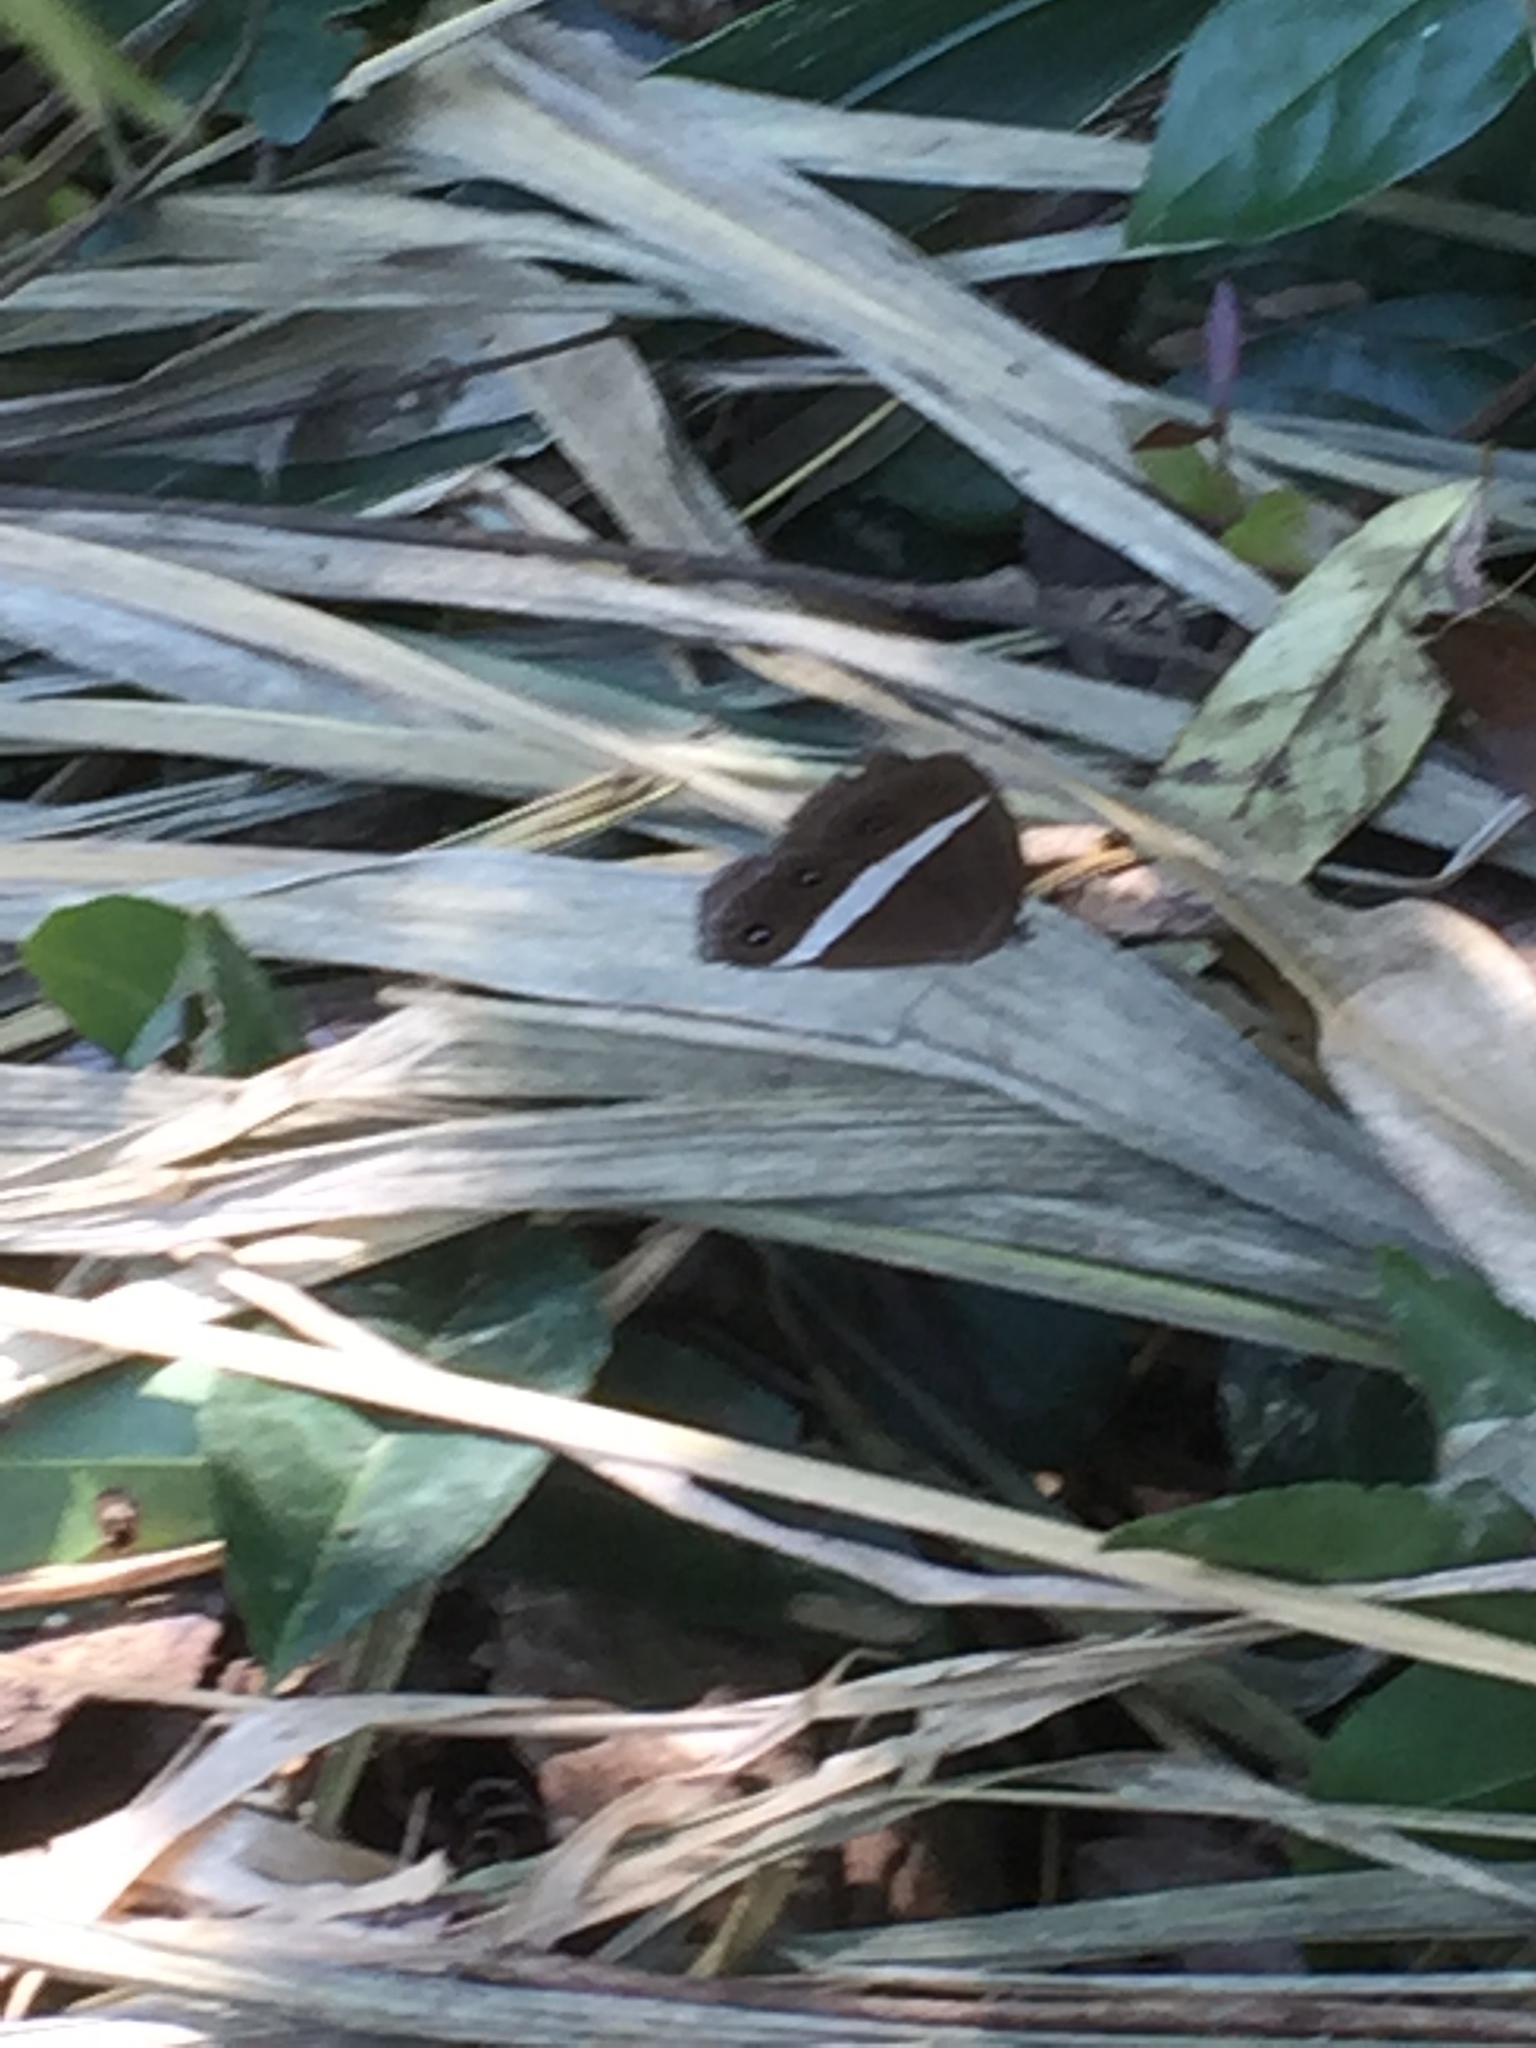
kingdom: Animalia
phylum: Arthropoda
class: Insecta
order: Lepidoptera
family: Nymphalidae
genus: Orsotriaena
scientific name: Orsotriaena medus
